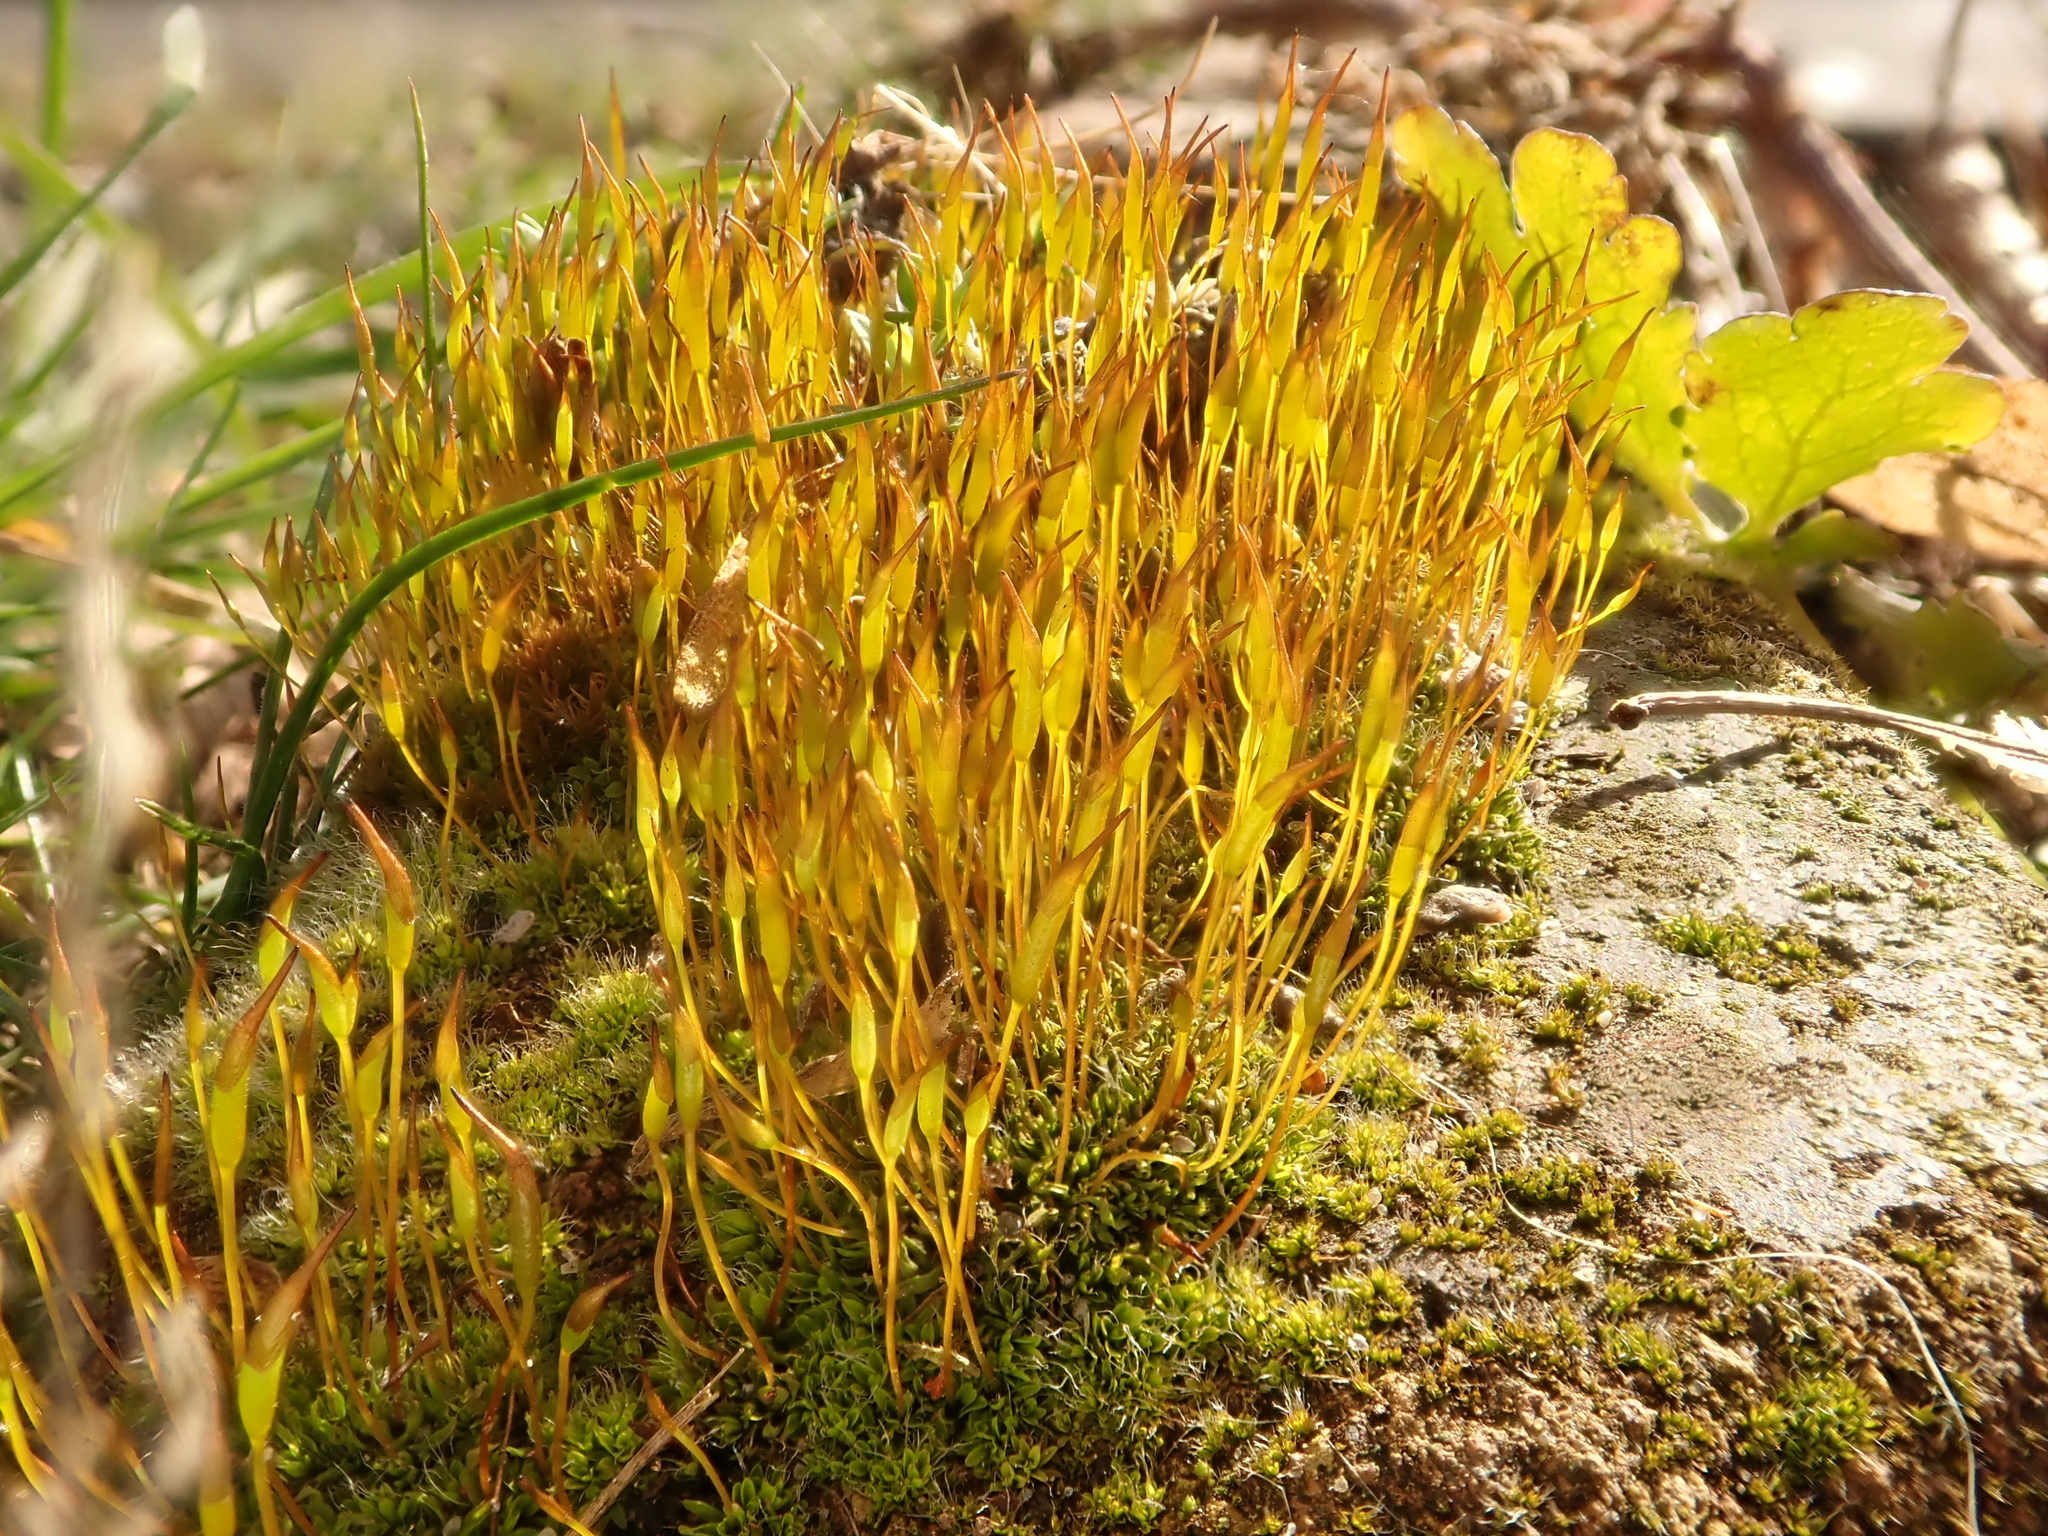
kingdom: Plantae
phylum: Bryophyta
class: Bryopsida
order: Pottiales
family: Pottiaceae
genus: Tortula
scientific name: Tortula muralis
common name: Wall screw-moss
